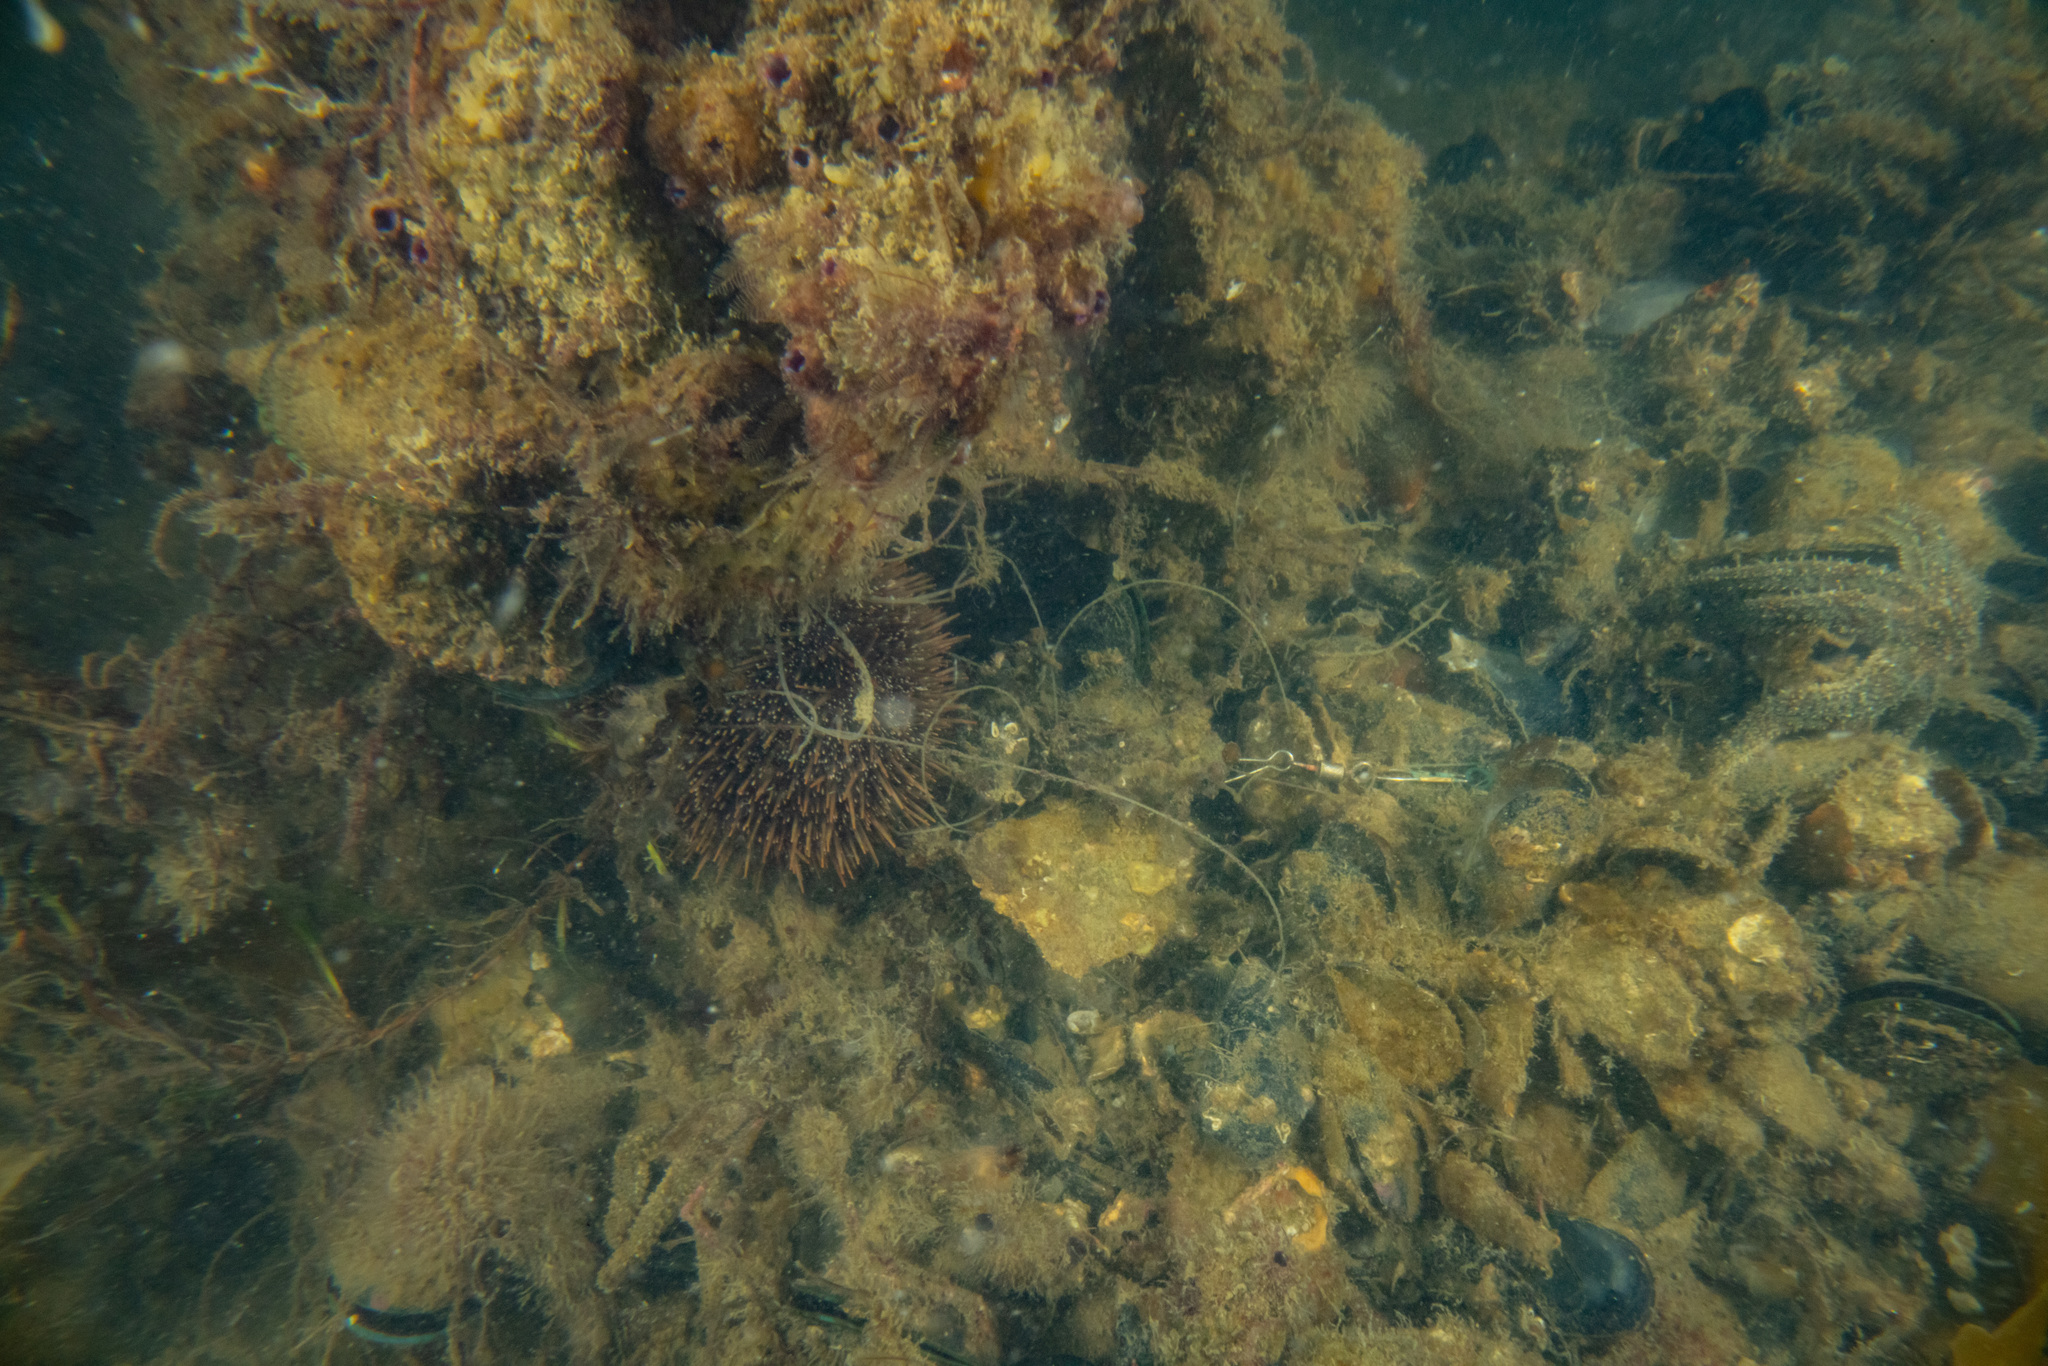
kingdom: Animalia
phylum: Echinodermata
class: Echinoidea
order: Camarodonta
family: Echinometridae
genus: Evechinus
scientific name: Evechinus chloroticus
